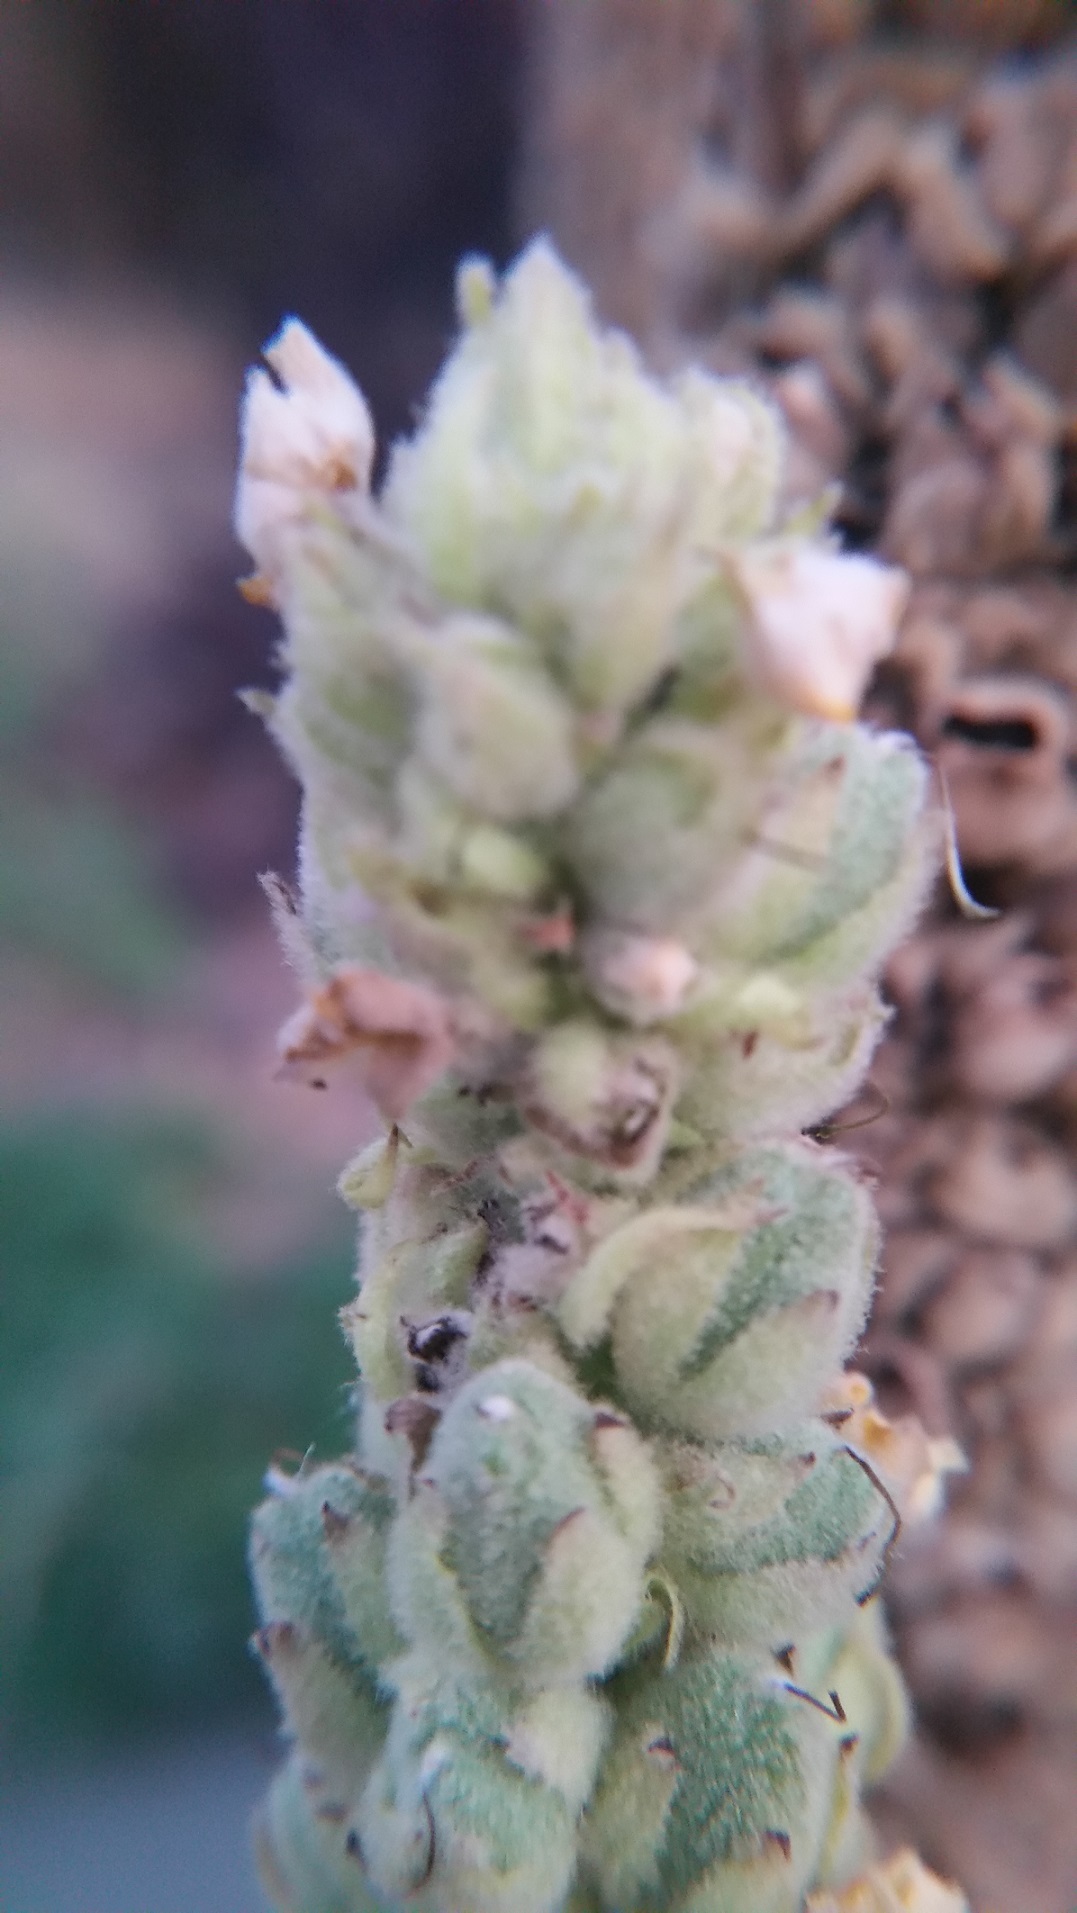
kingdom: Plantae
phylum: Tracheophyta
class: Magnoliopsida
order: Lamiales
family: Scrophulariaceae
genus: Verbascum
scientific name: Verbascum thapsus
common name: Common mullein
